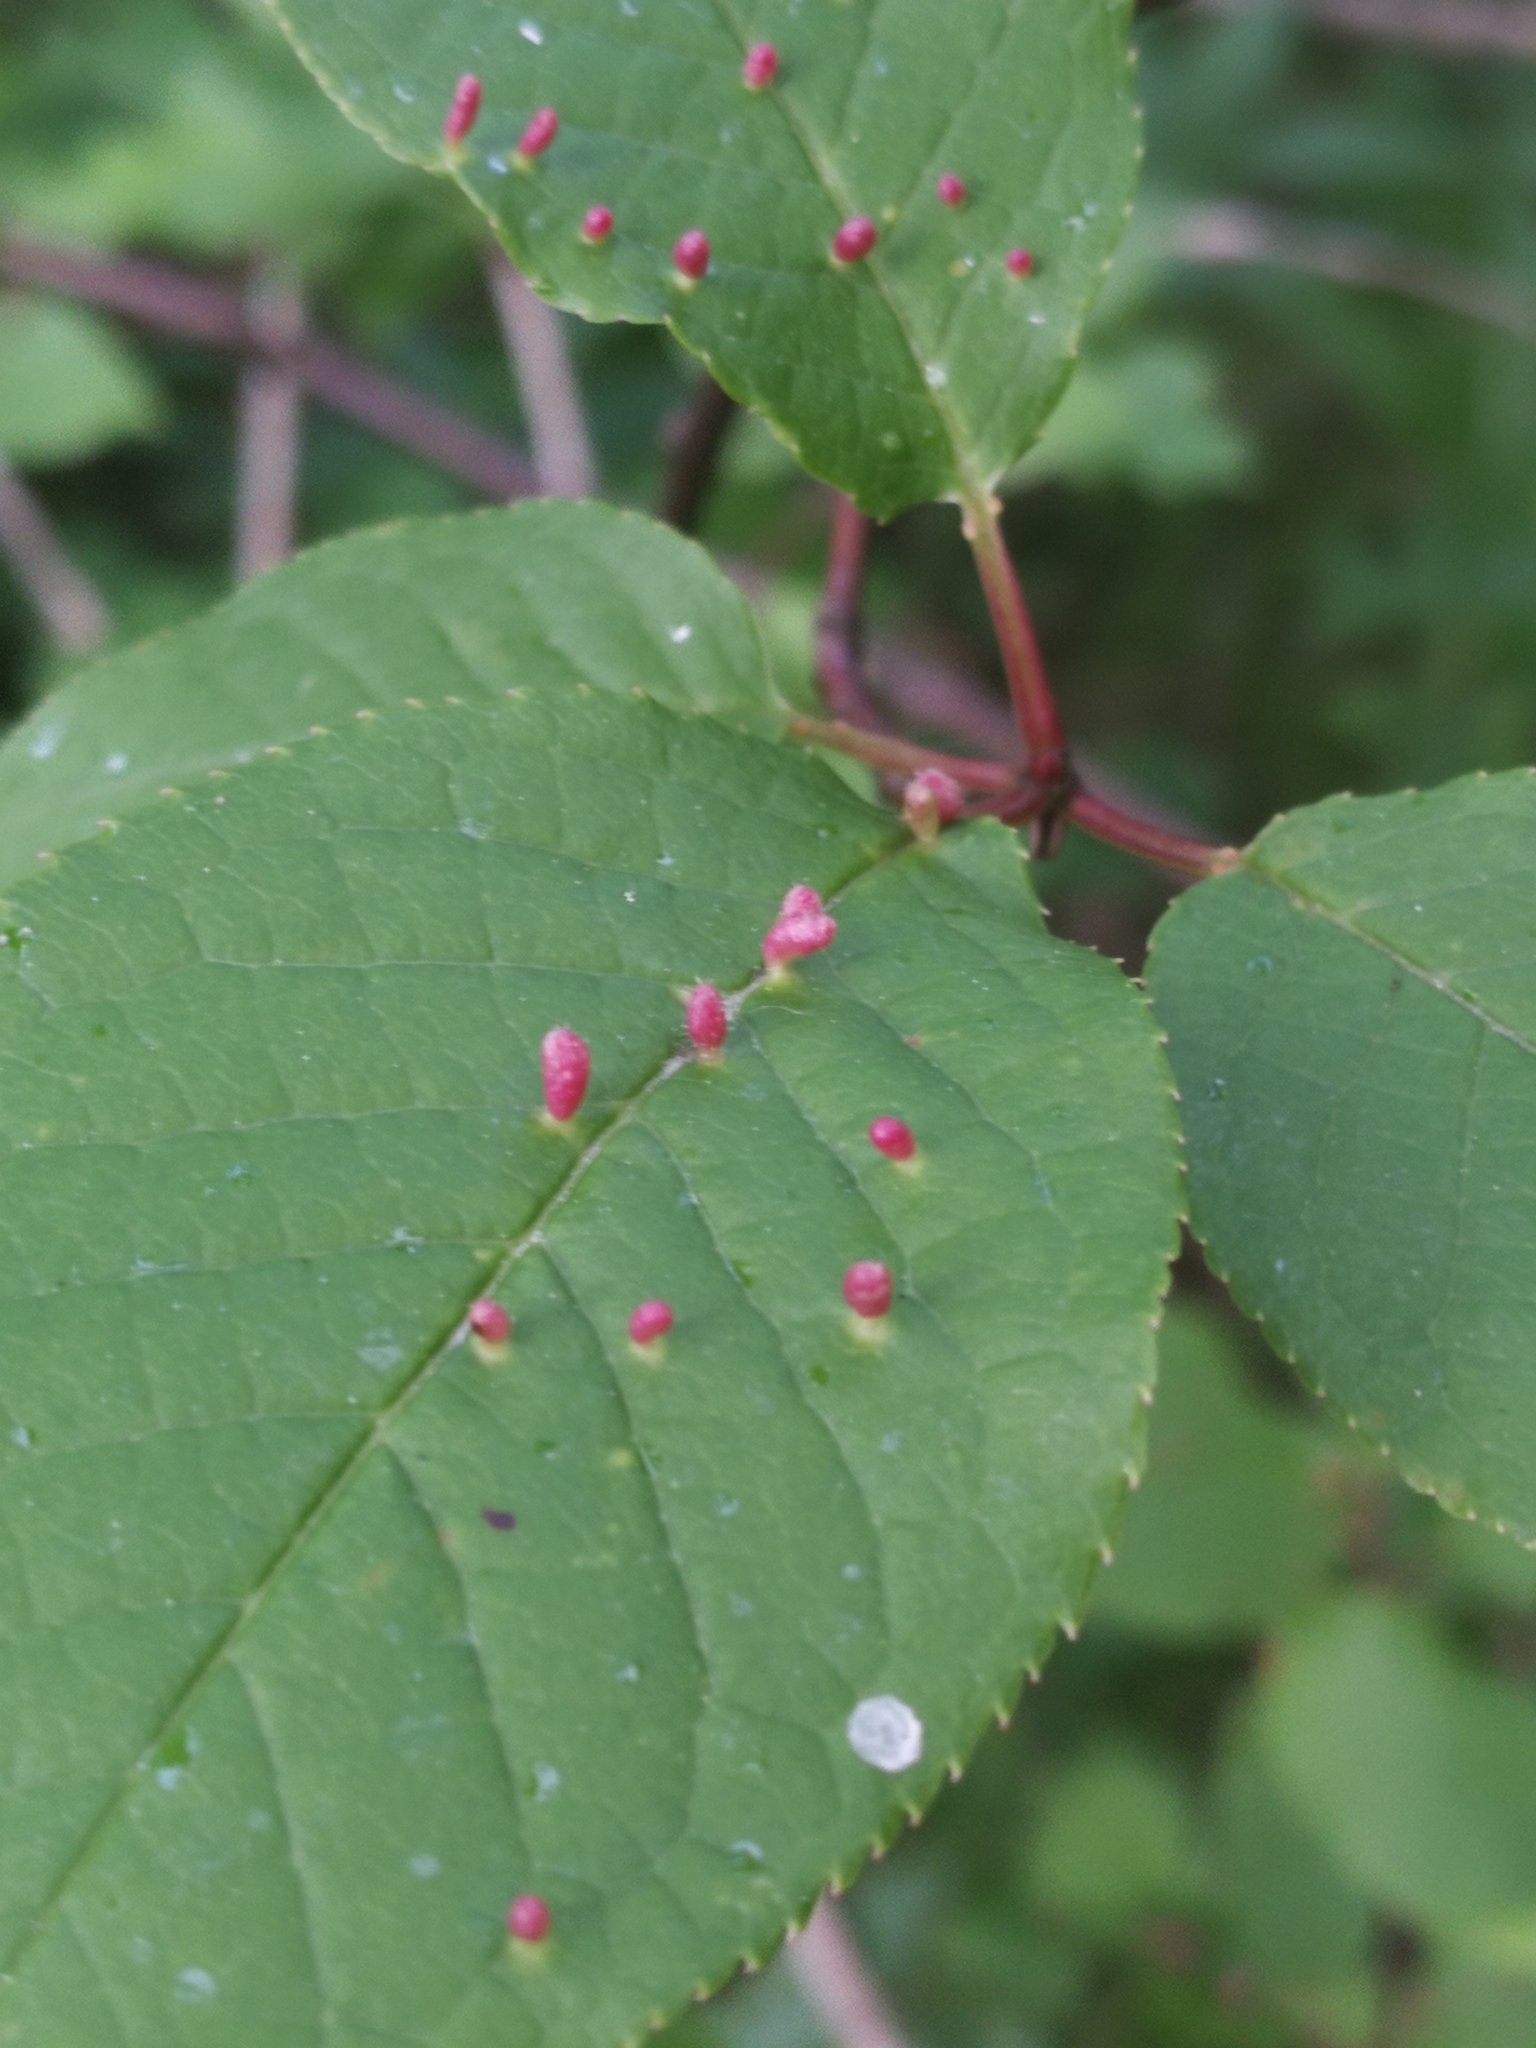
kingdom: Animalia
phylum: Arthropoda
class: Arachnida
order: Trombidiformes
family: Eriophyidae
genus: Phyllocoptes
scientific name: Phyllocoptes eupadi
